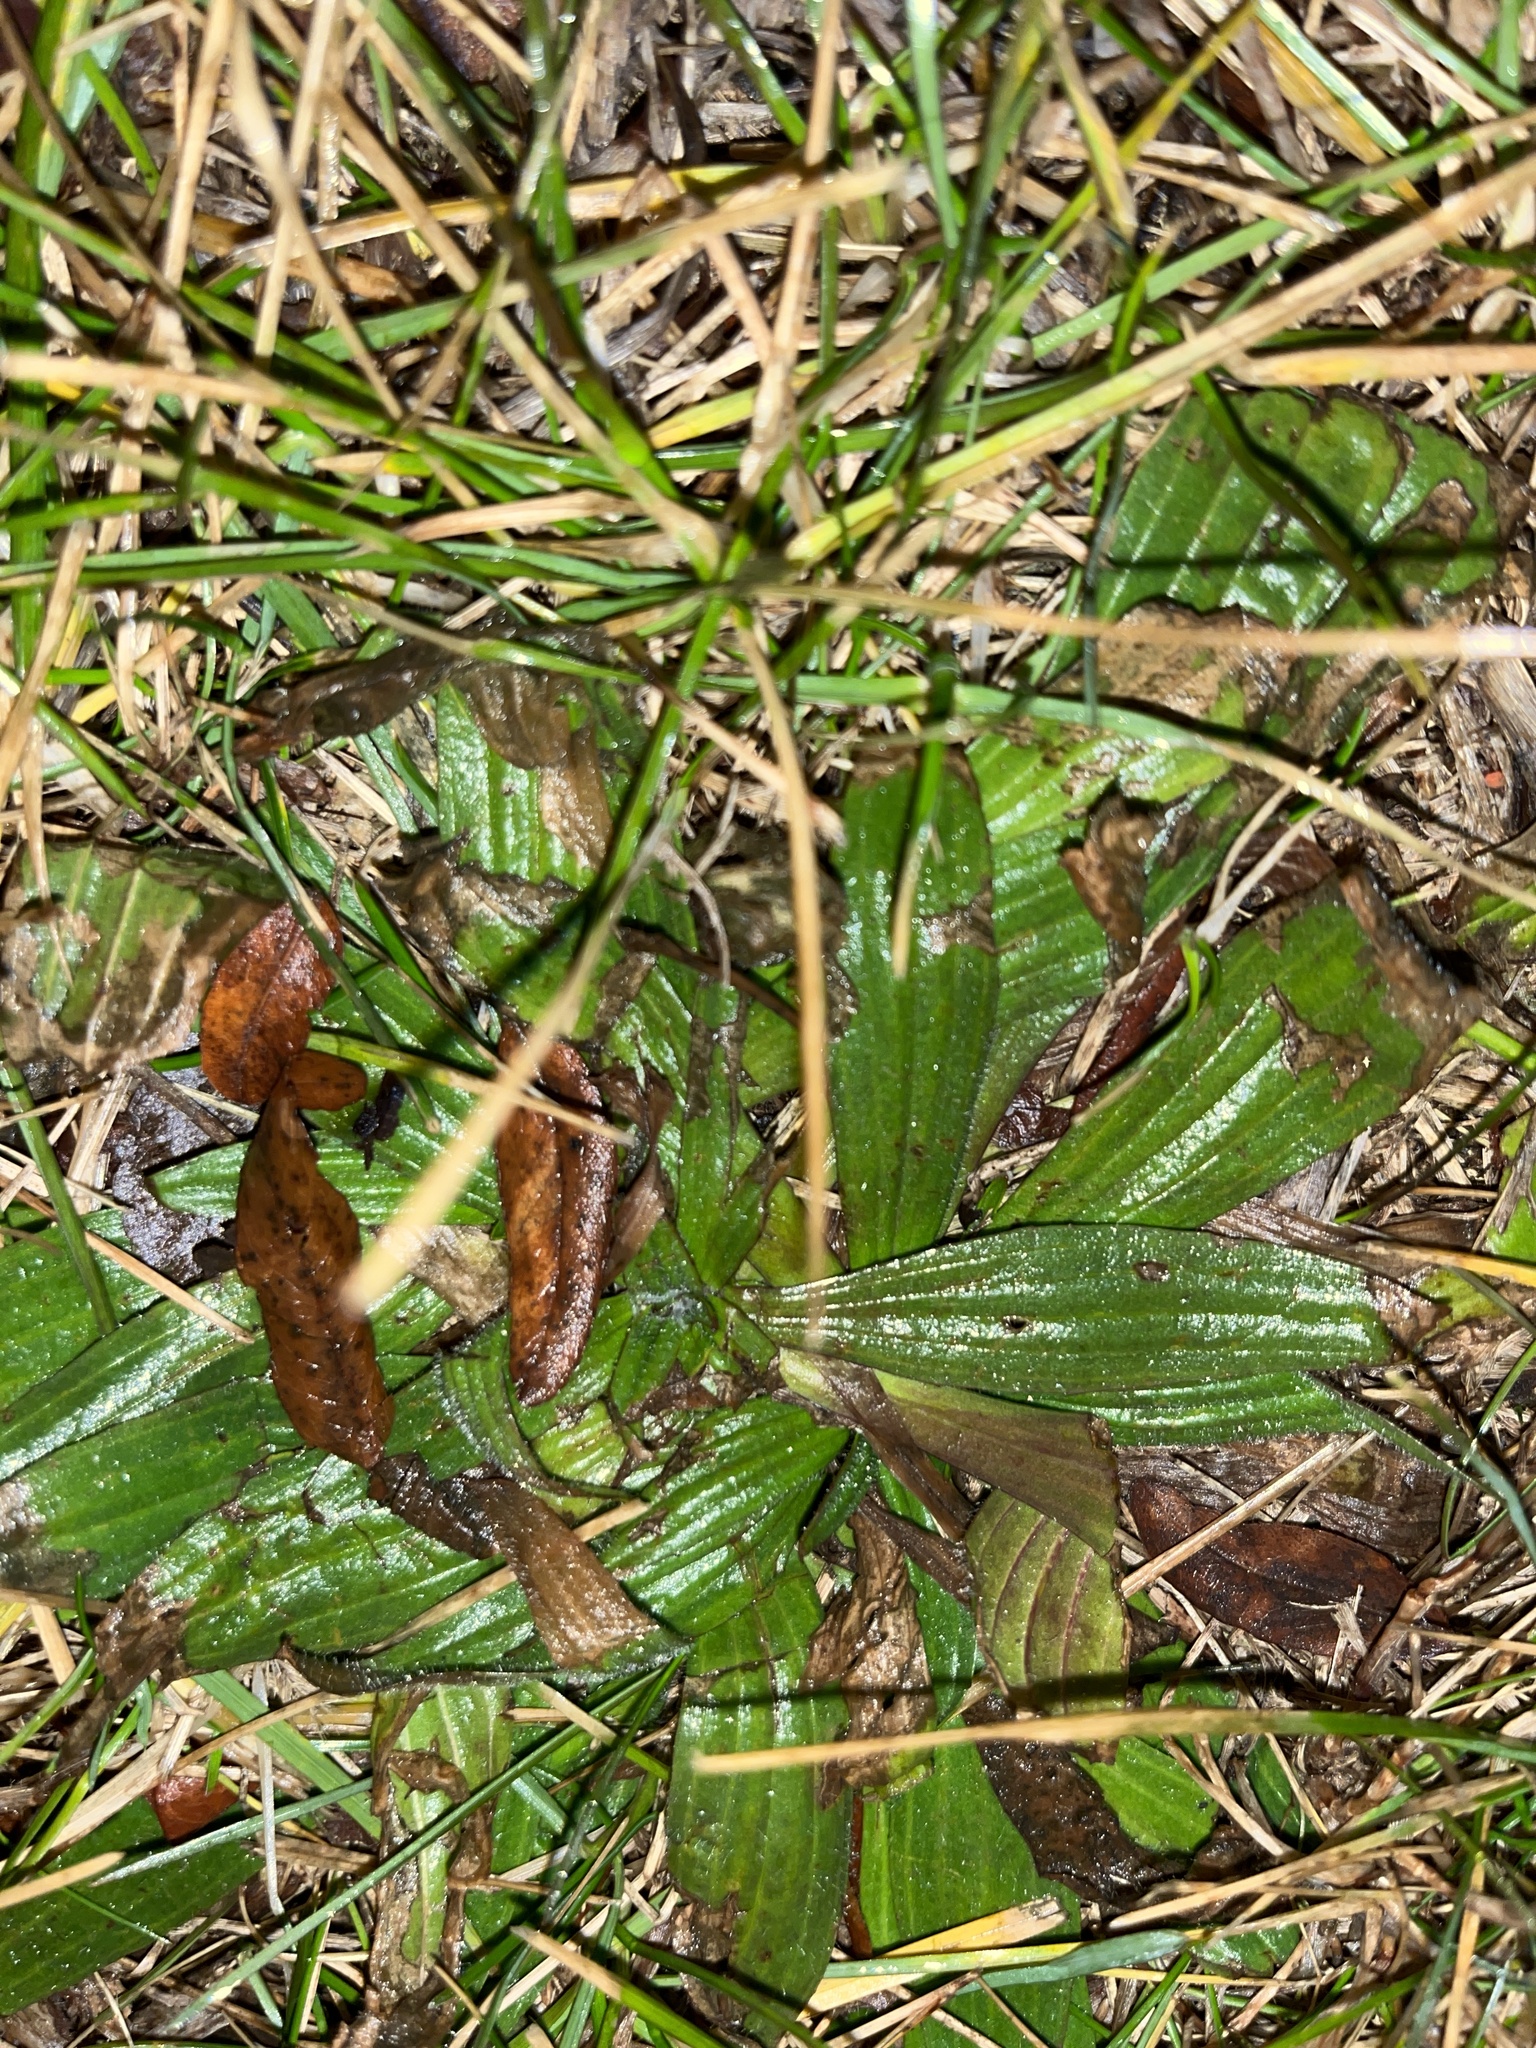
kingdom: Plantae
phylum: Tracheophyta
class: Magnoliopsida
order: Lamiales
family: Plantaginaceae
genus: Plantago
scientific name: Plantago lanceolata
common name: Ribwort plantain
